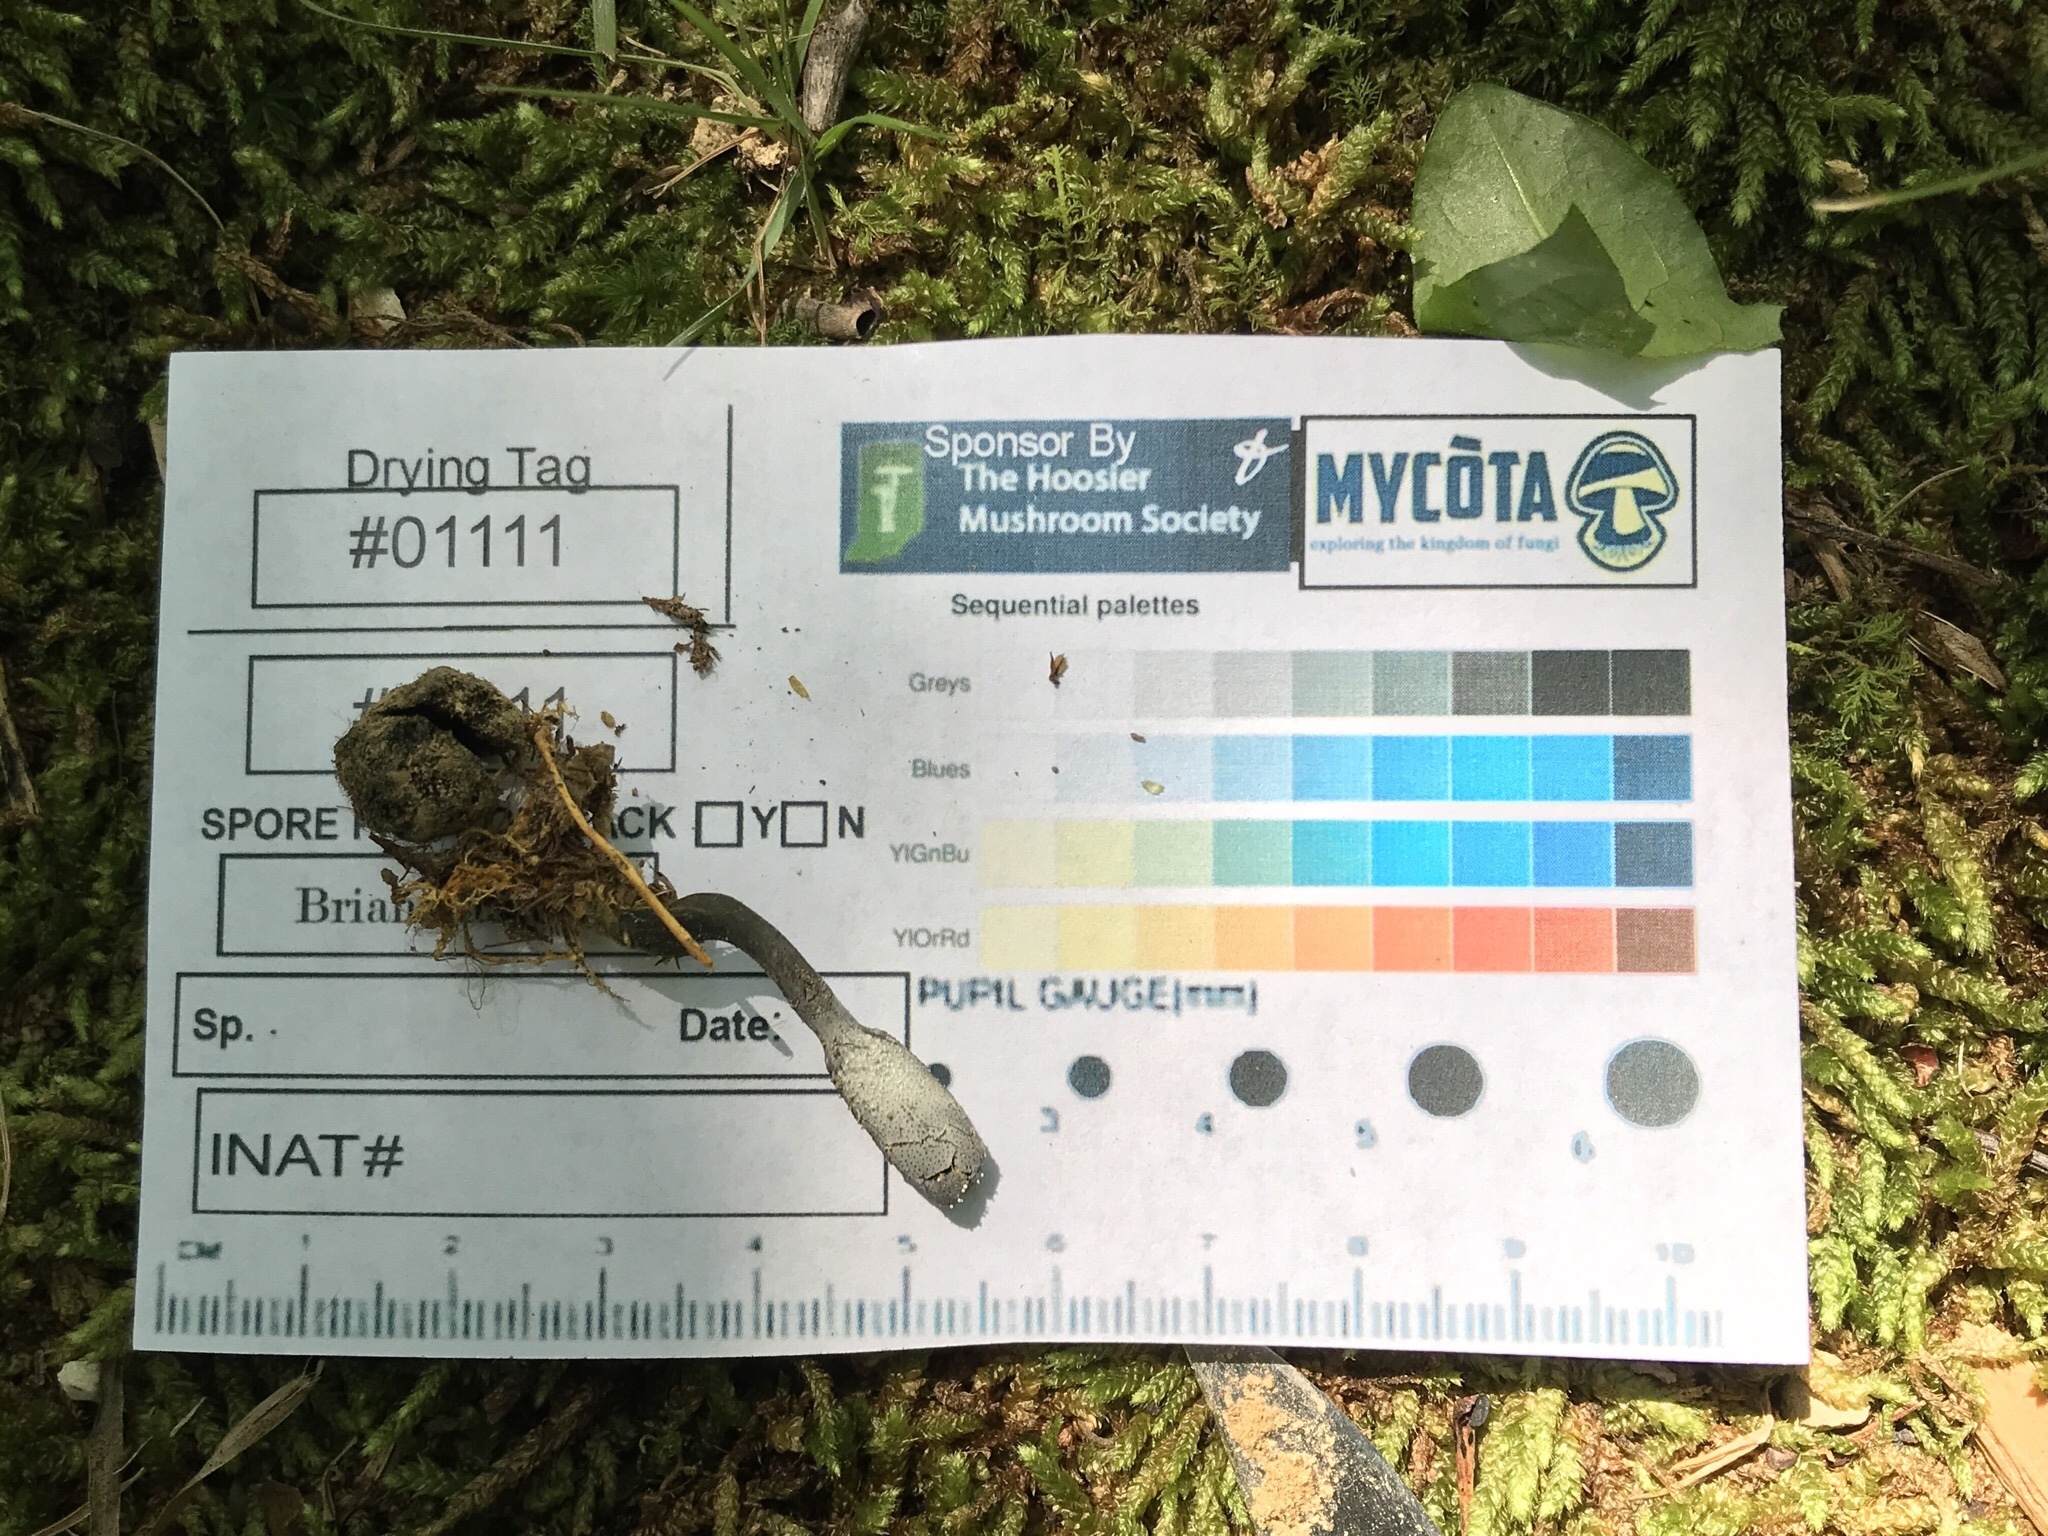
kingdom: Fungi
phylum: Ascomycota
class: Sordariomycetes
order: Hypocreales
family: Ophiocordycipitaceae
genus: Tolypocladium
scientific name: Tolypocladium ophioglossoides
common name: Snaketongue truffleclub
